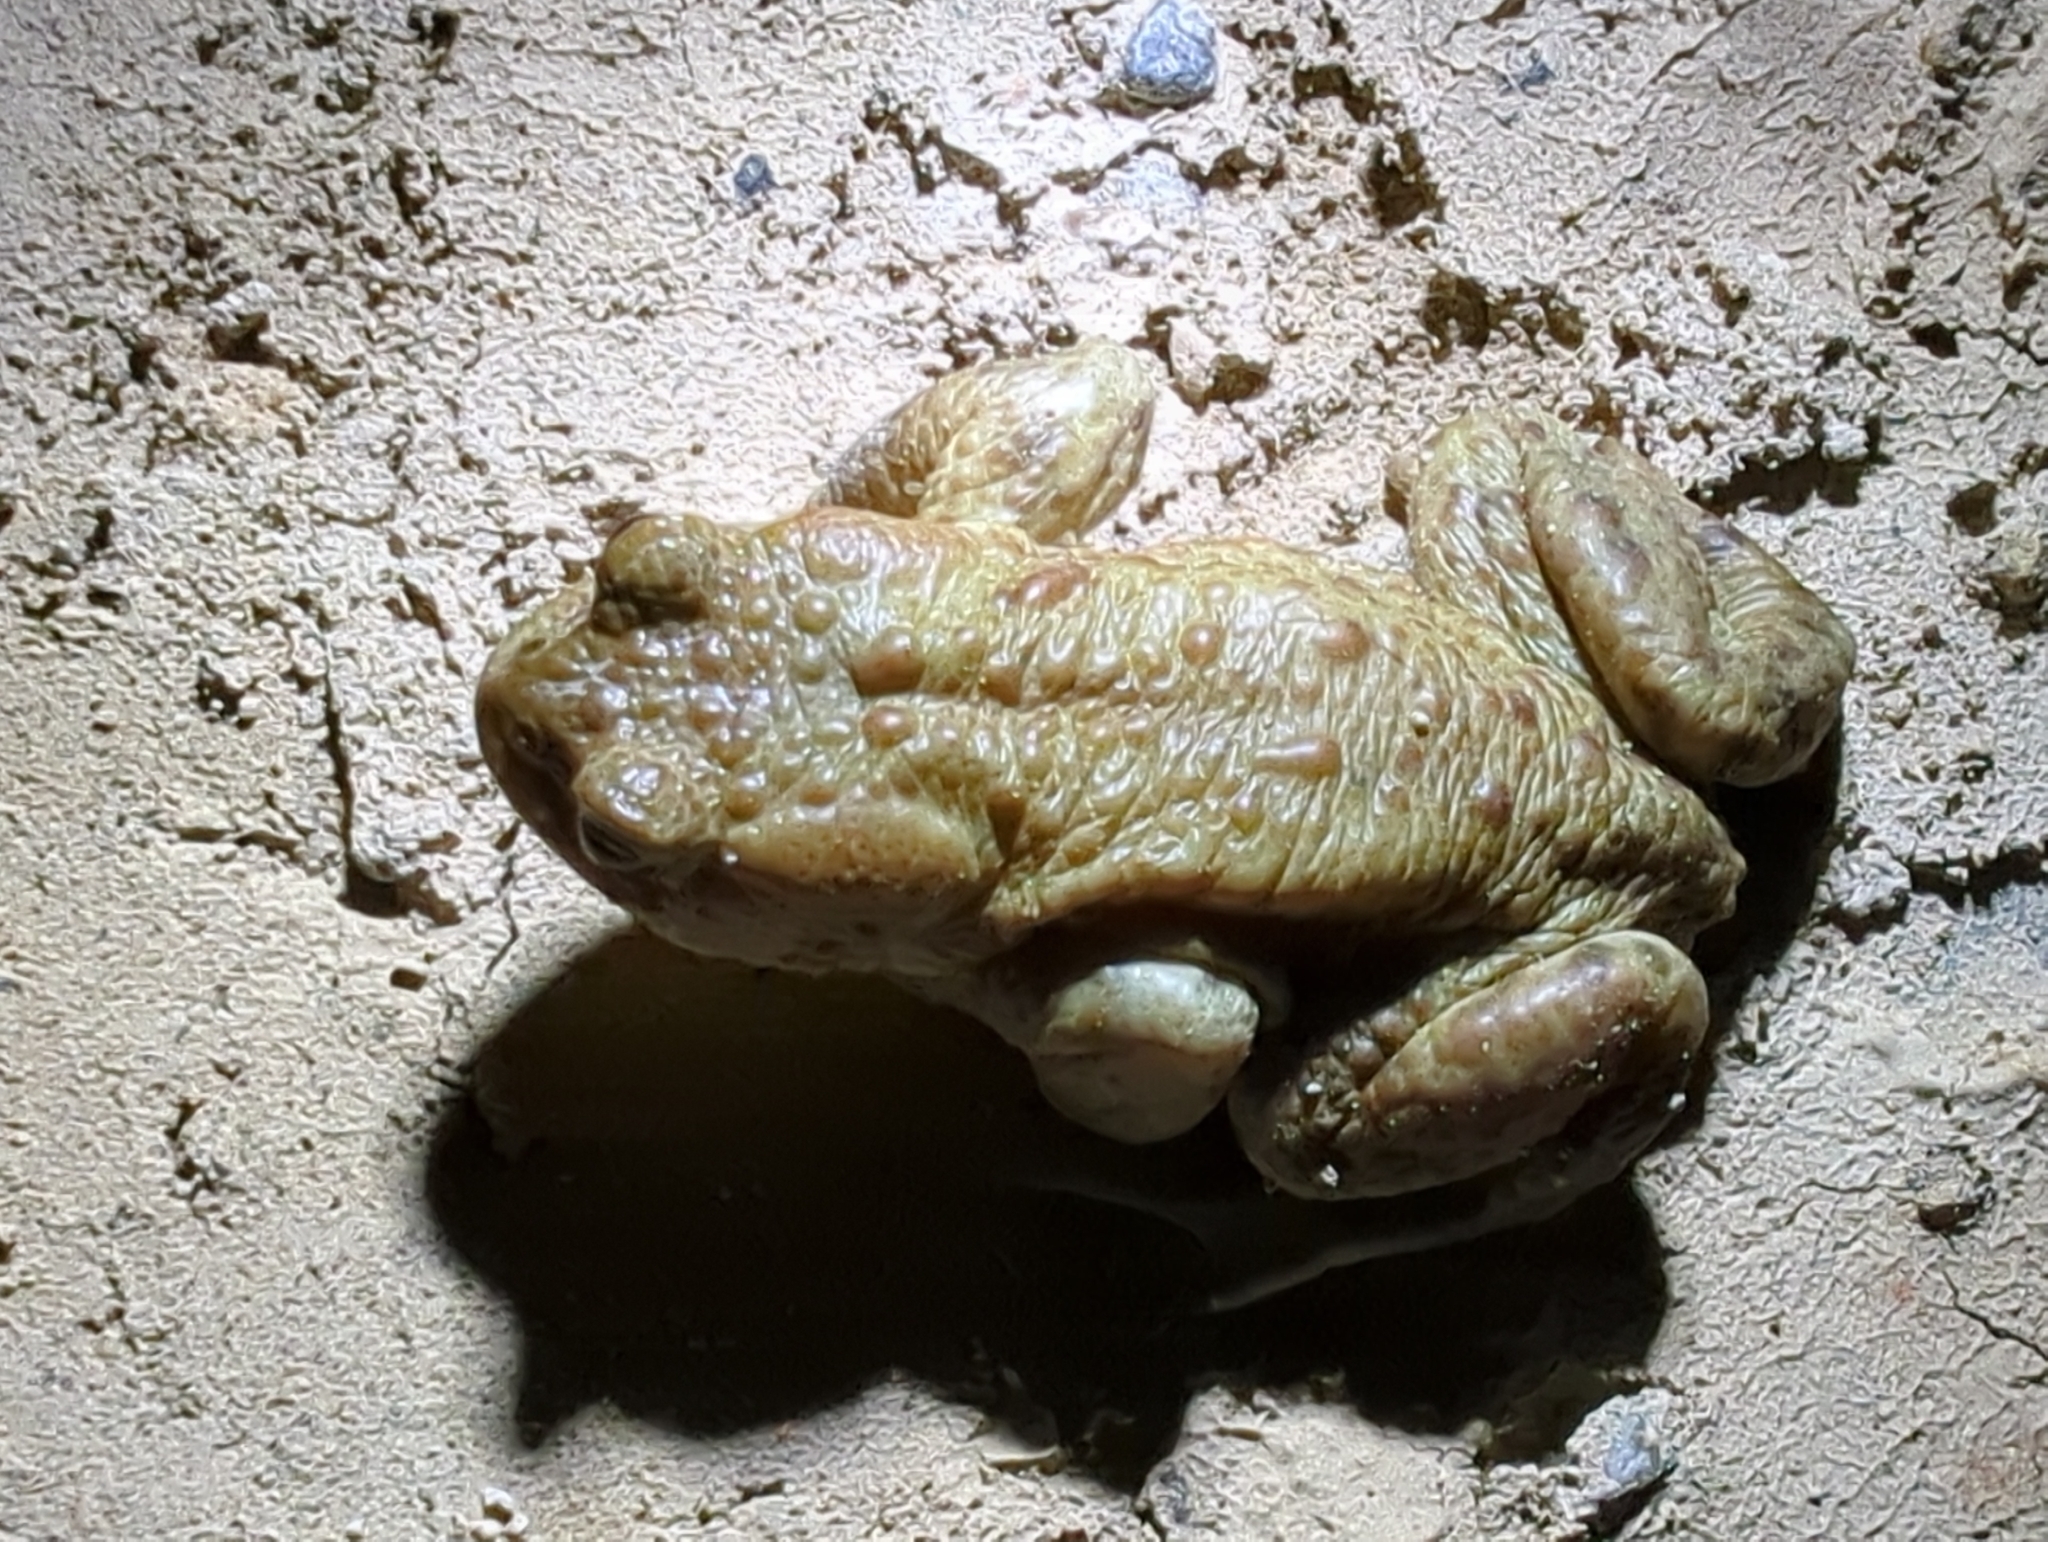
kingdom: Animalia
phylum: Chordata
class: Amphibia
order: Anura
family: Bufonidae
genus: Bufo
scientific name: Bufo bufo
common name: Common toad
